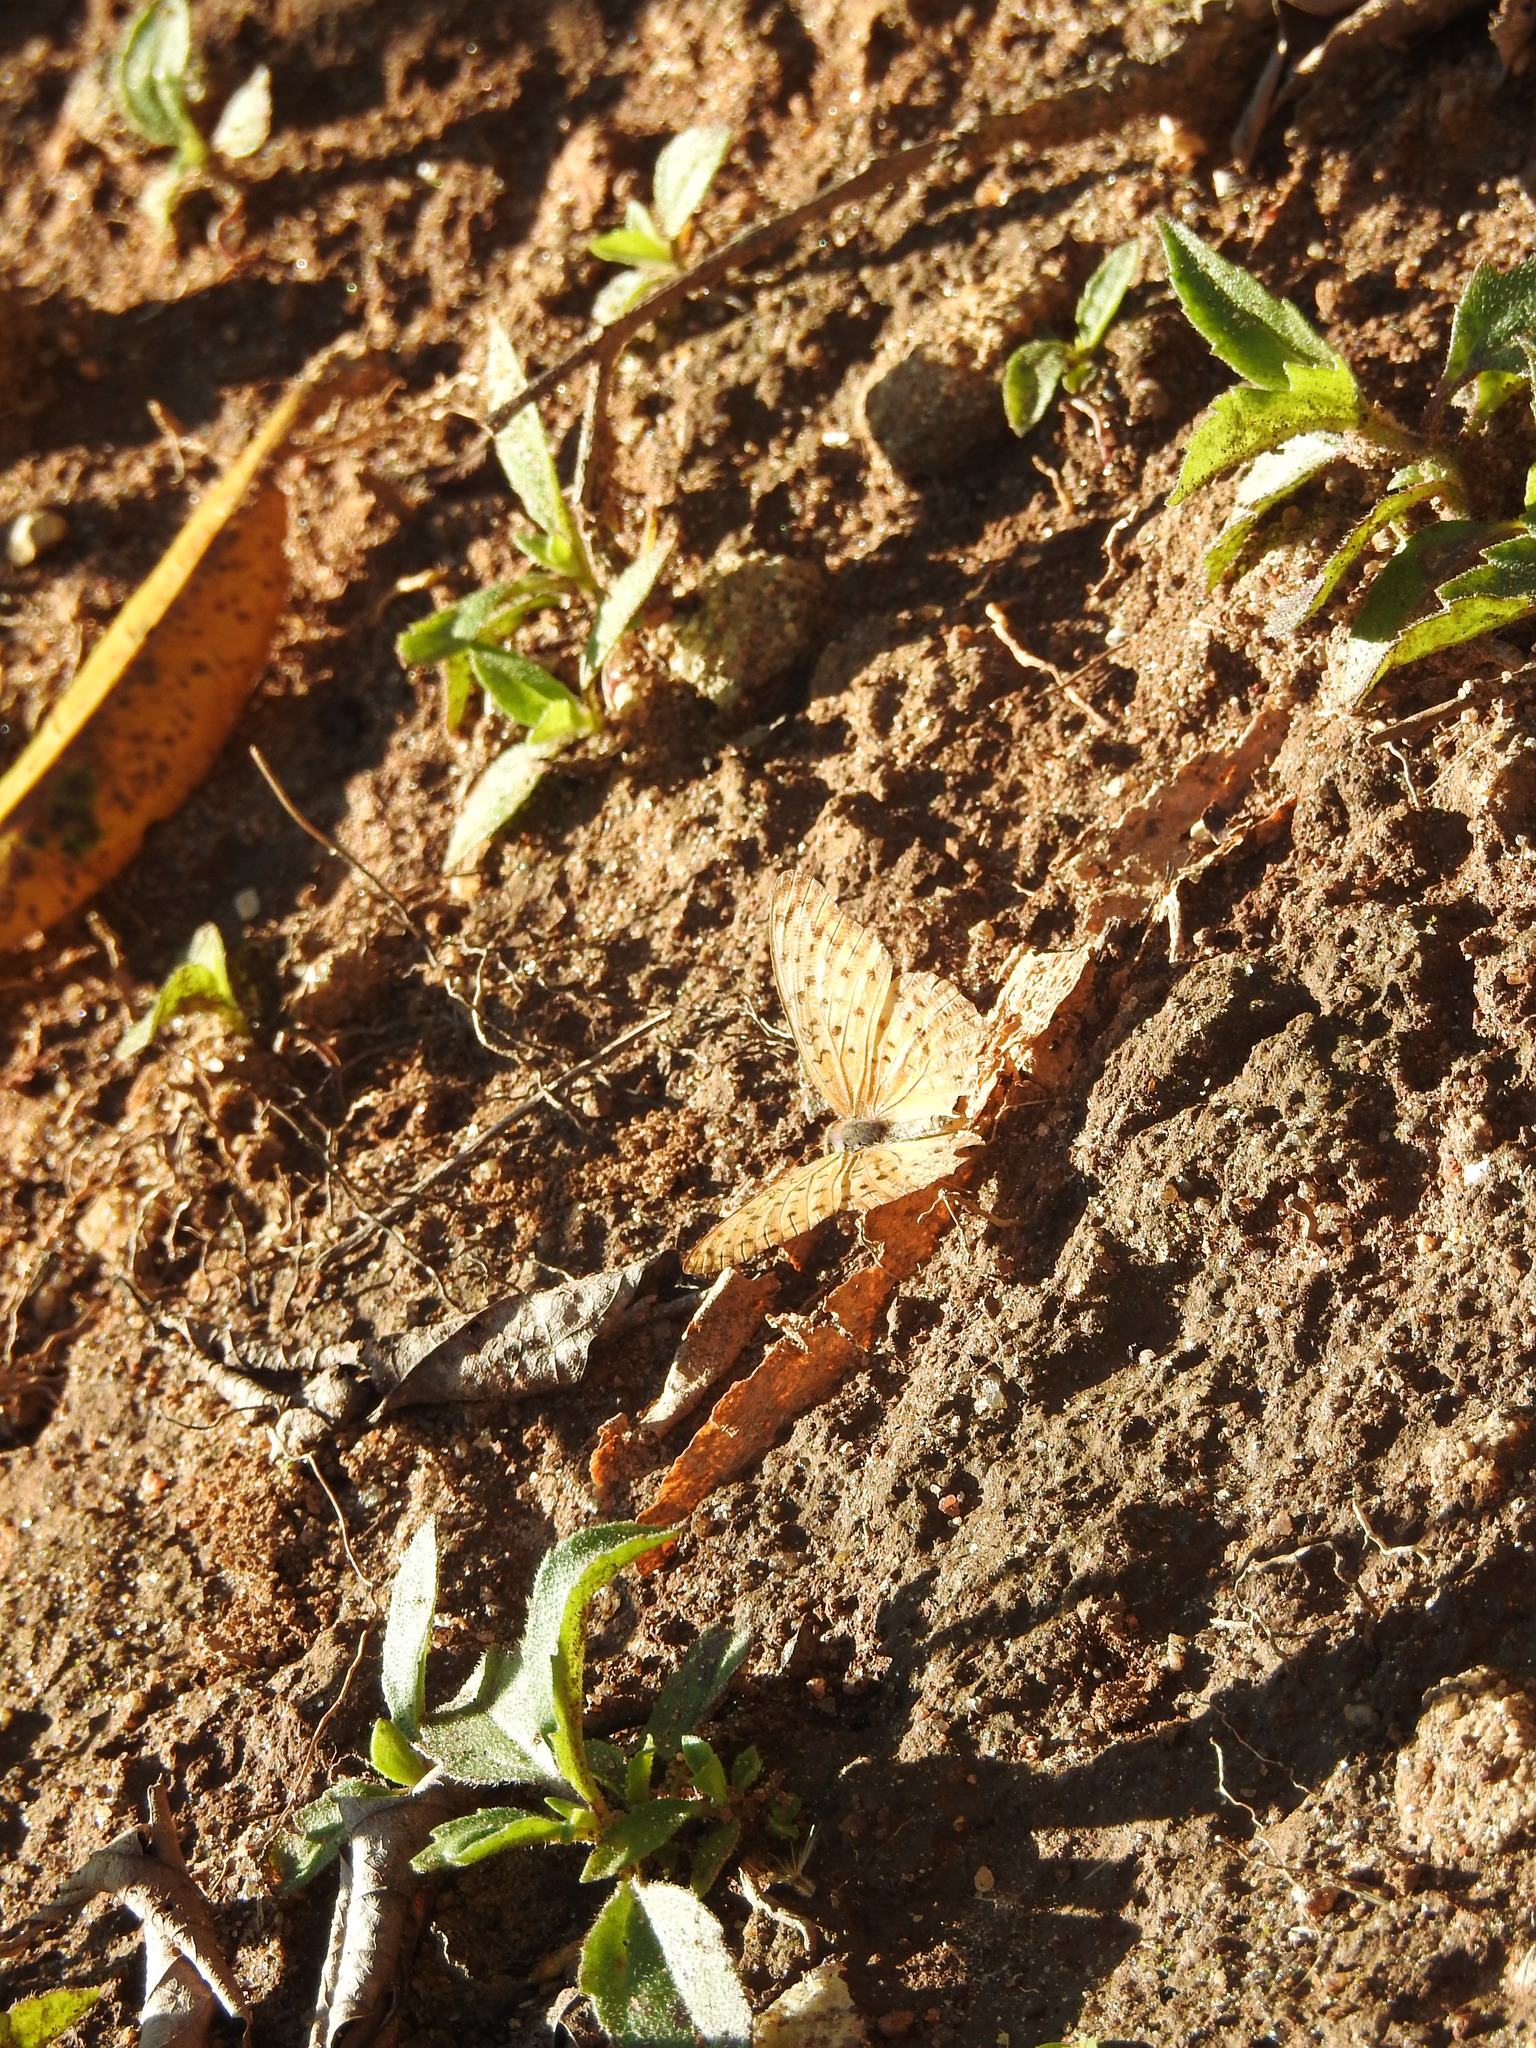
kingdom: Animalia
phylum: Arthropoda
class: Insecta
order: Lepidoptera
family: Nymphalidae
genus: Phalanta
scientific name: Phalanta phalantha
